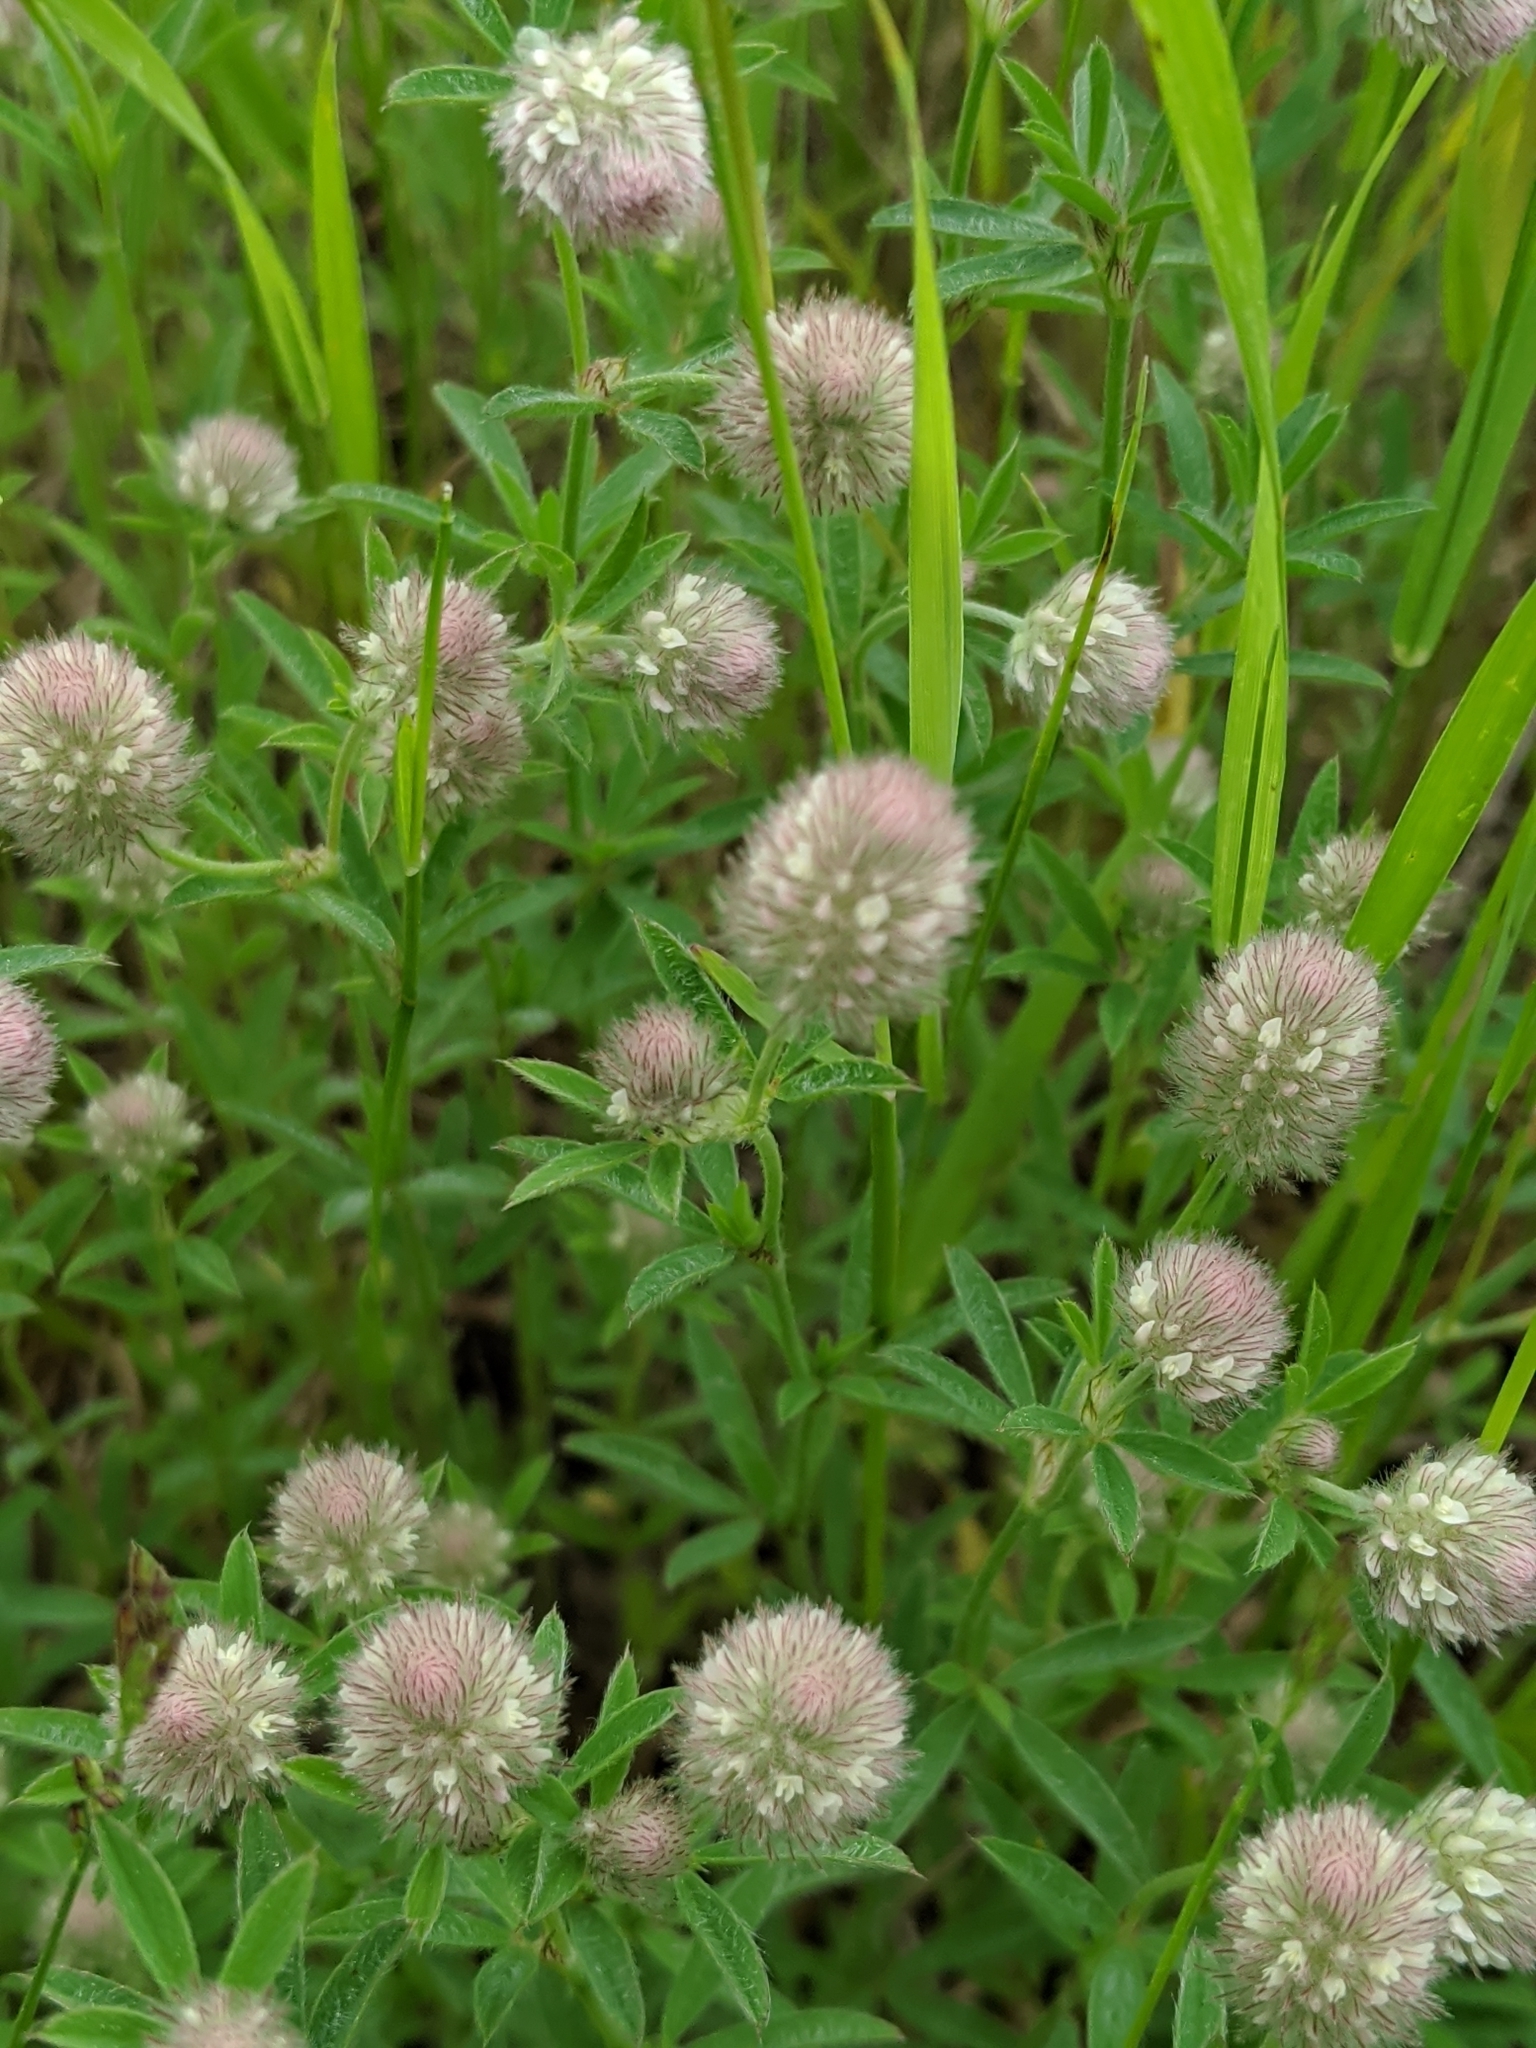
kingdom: Plantae
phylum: Tracheophyta
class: Magnoliopsida
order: Fabales
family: Fabaceae
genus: Trifolium
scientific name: Trifolium arvense
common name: Hare's-foot clover
